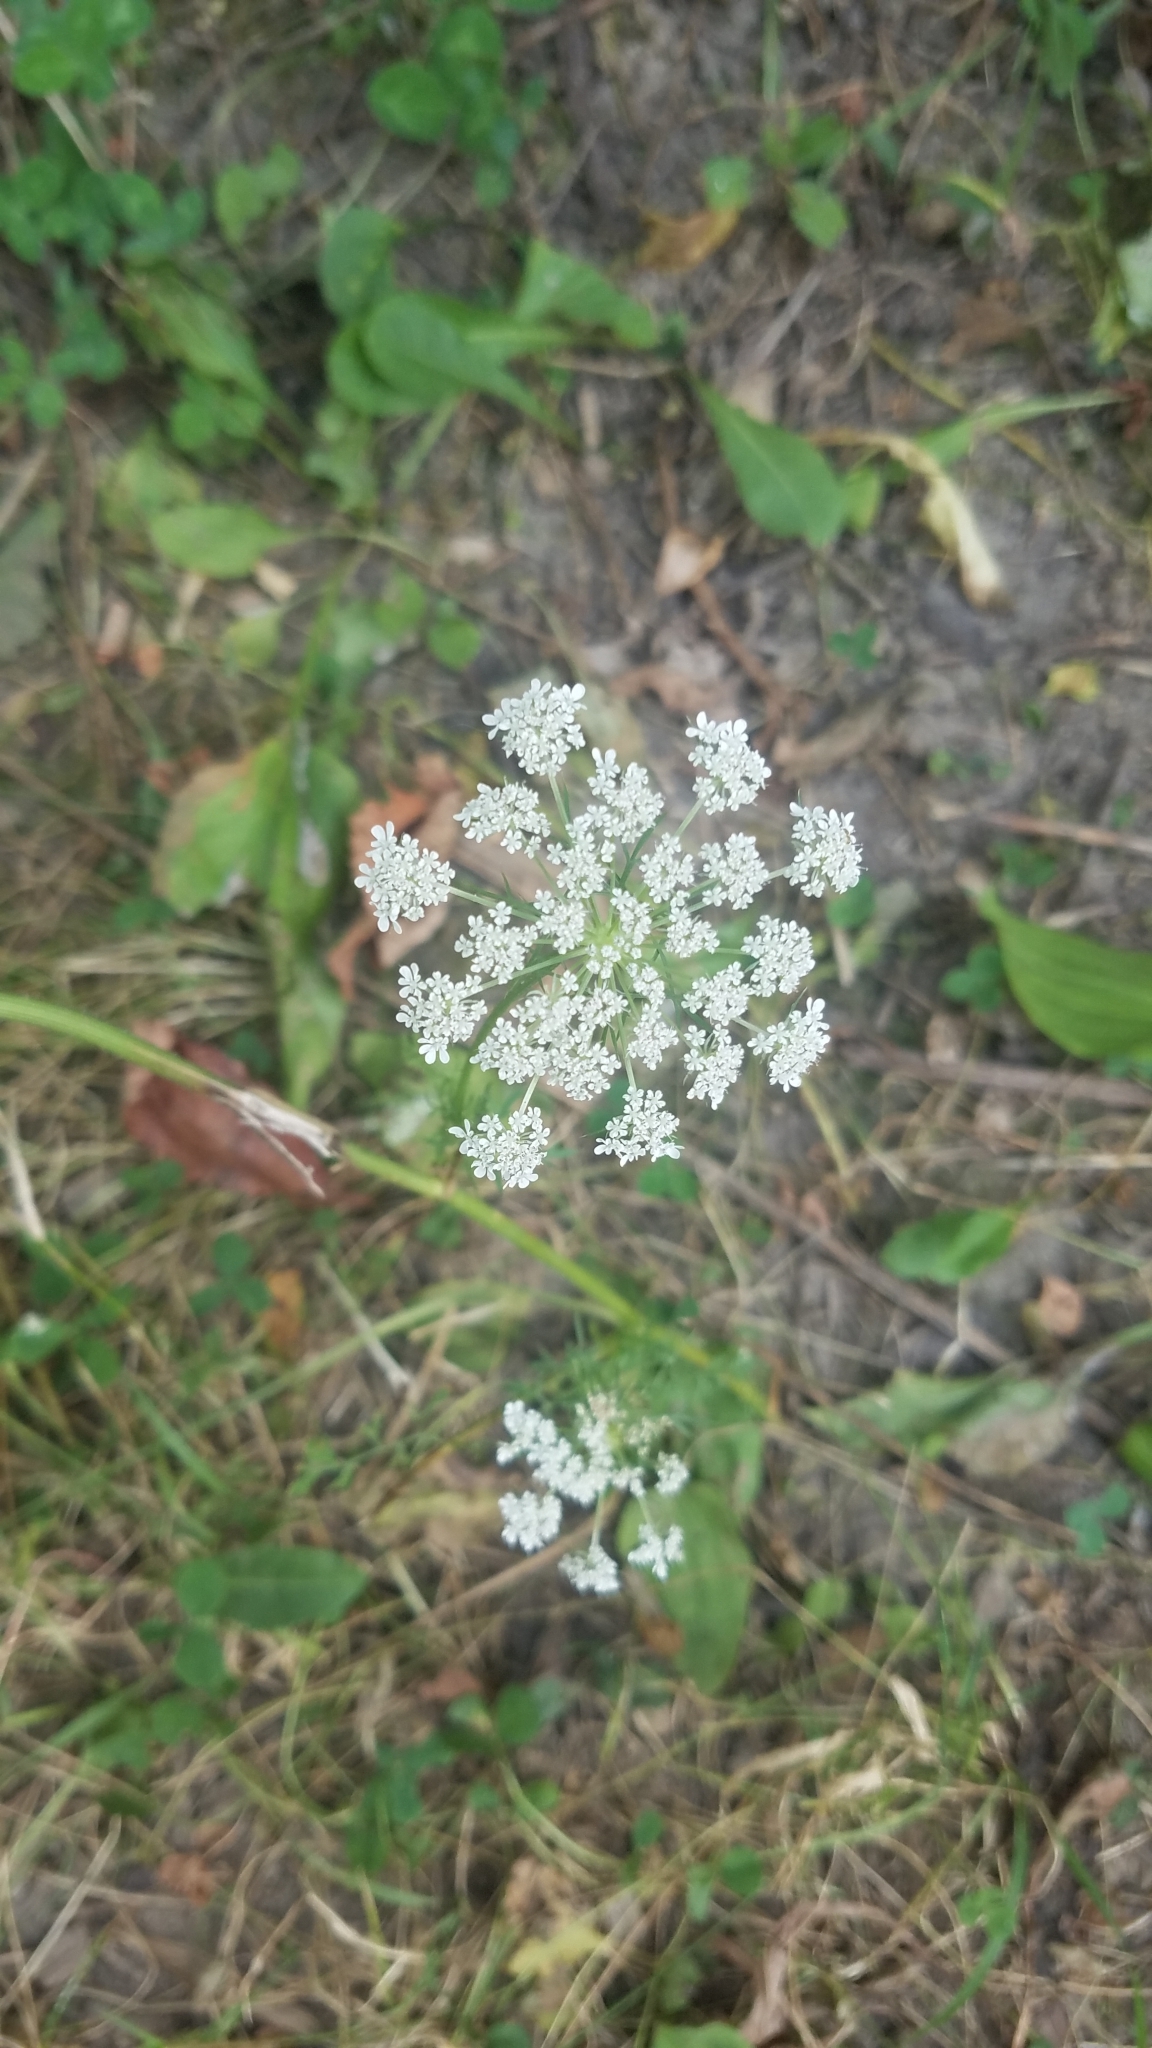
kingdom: Plantae
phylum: Tracheophyta
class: Magnoliopsida
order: Apiales
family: Apiaceae
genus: Daucus
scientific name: Daucus carota
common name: Wild carrot
